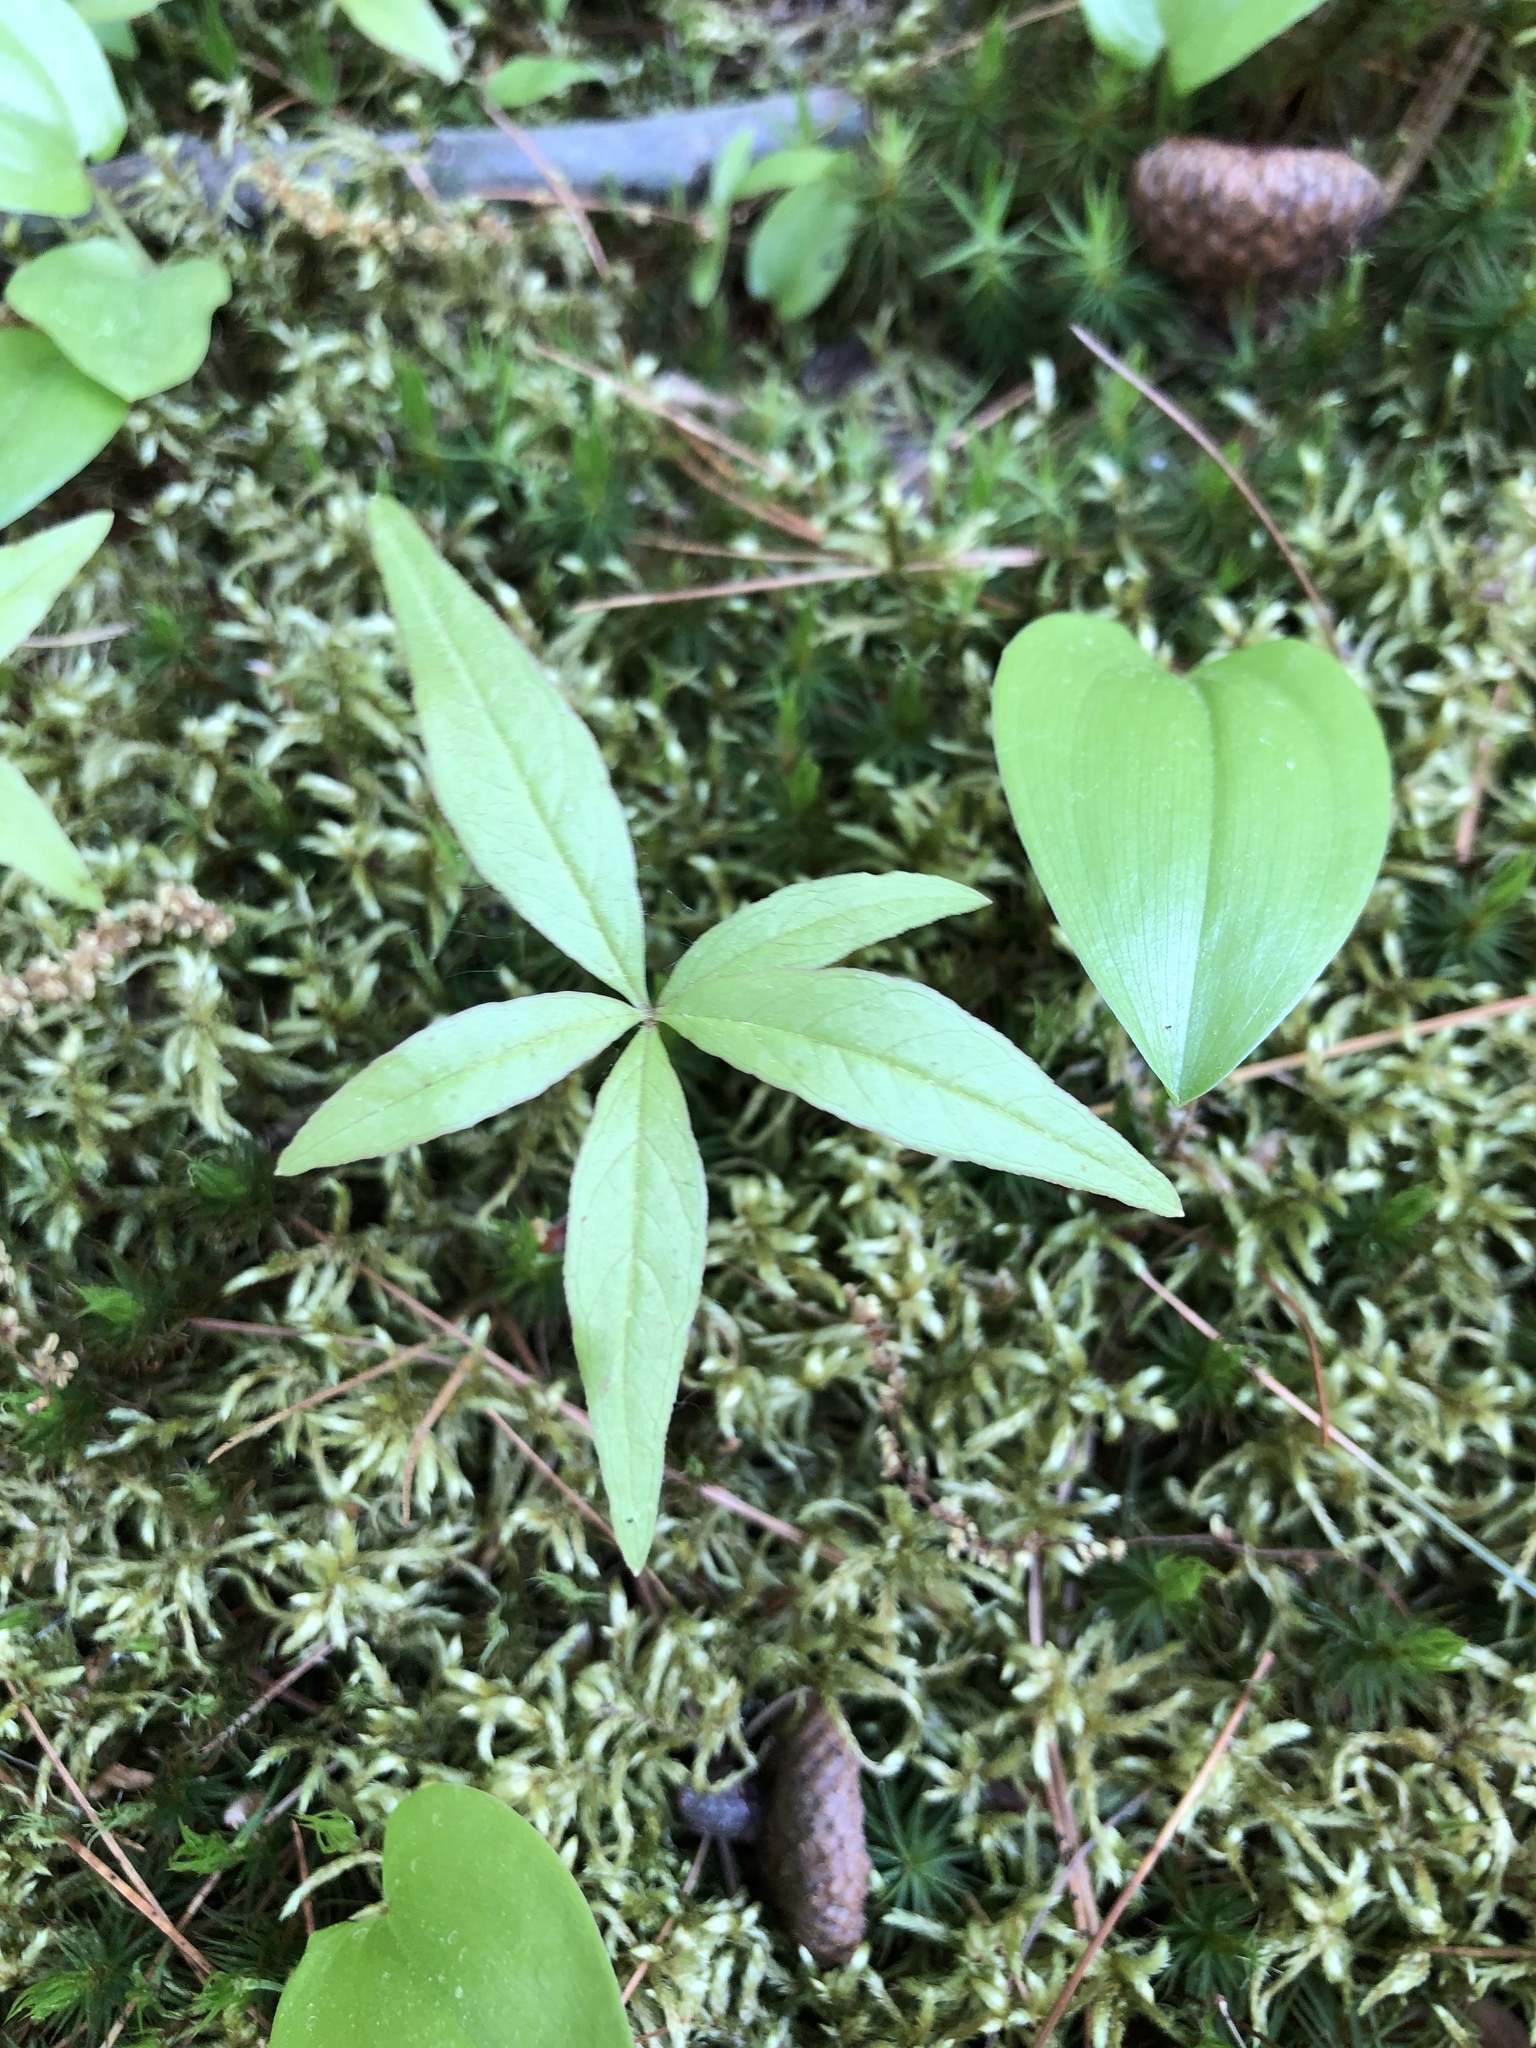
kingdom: Plantae
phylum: Tracheophyta
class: Magnoliopsida
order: Ericales
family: Primulaceae
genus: Lysimachia
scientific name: Lysimachia borealis
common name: American starflower
